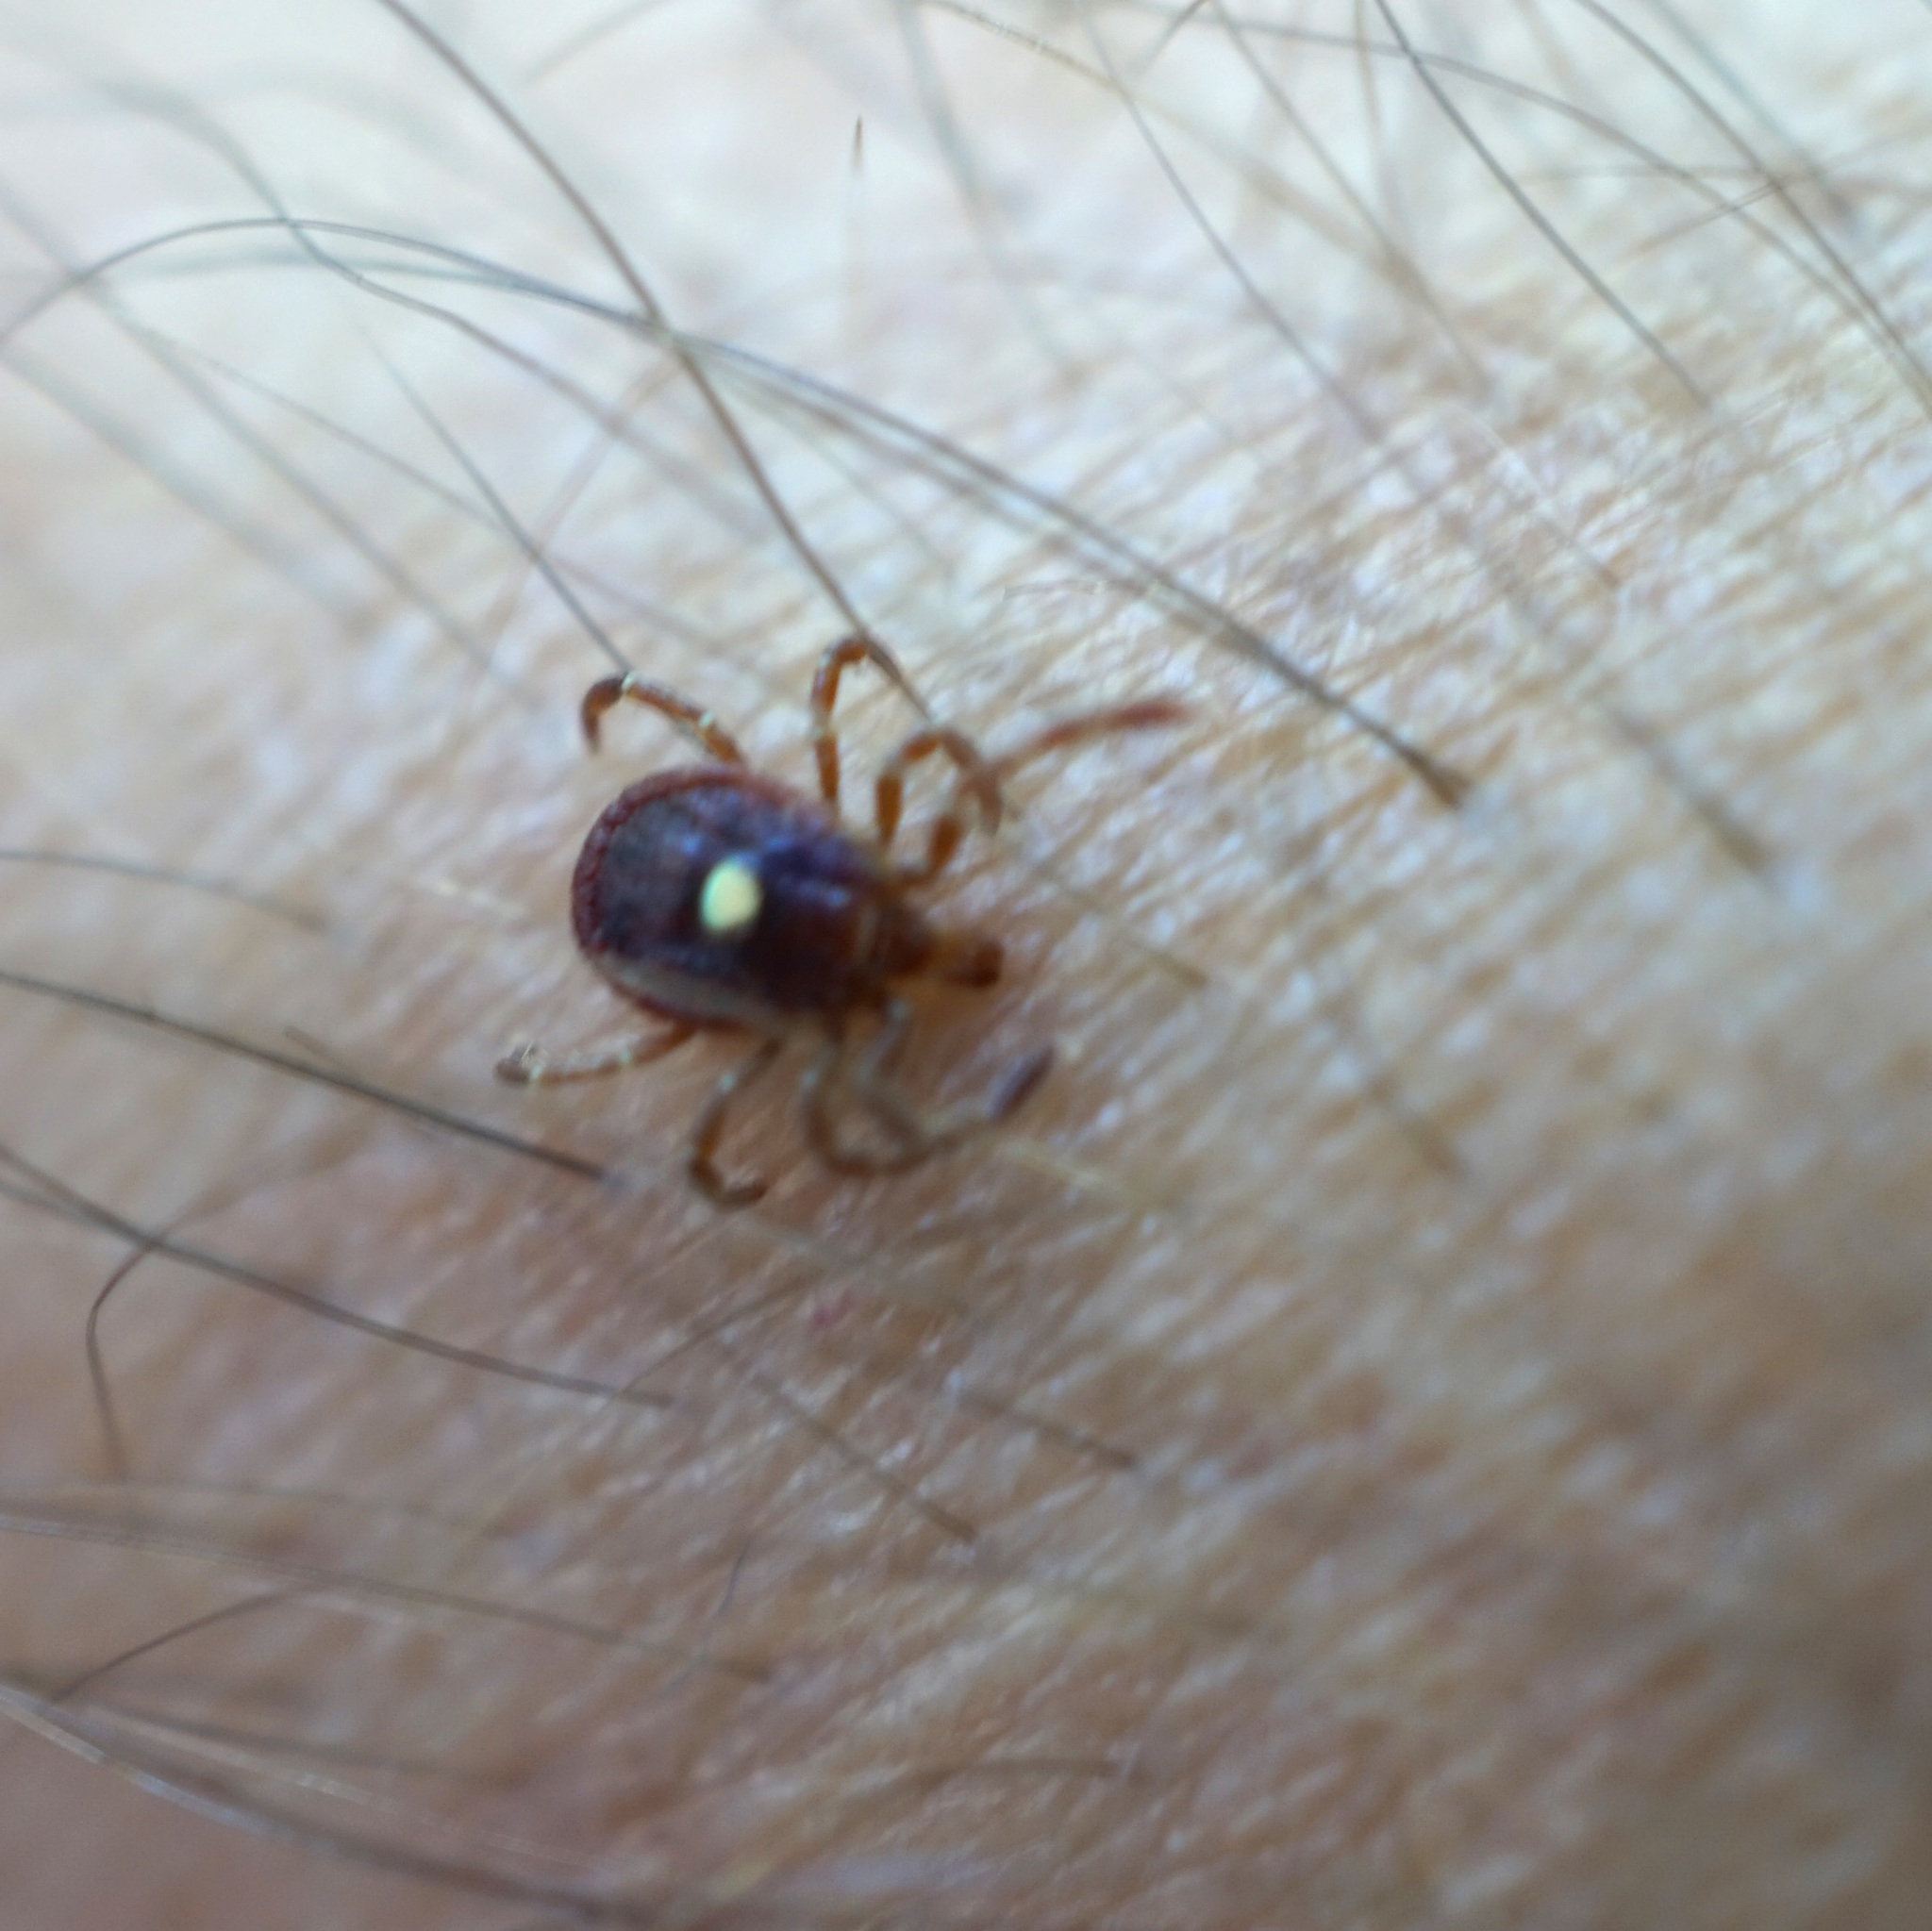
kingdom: Animalia
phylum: Arthropoda
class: Arachnida
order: Ixodida
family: Ixodidae
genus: Amblyomma
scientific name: Amblyomma americanum
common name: Lone star tick
